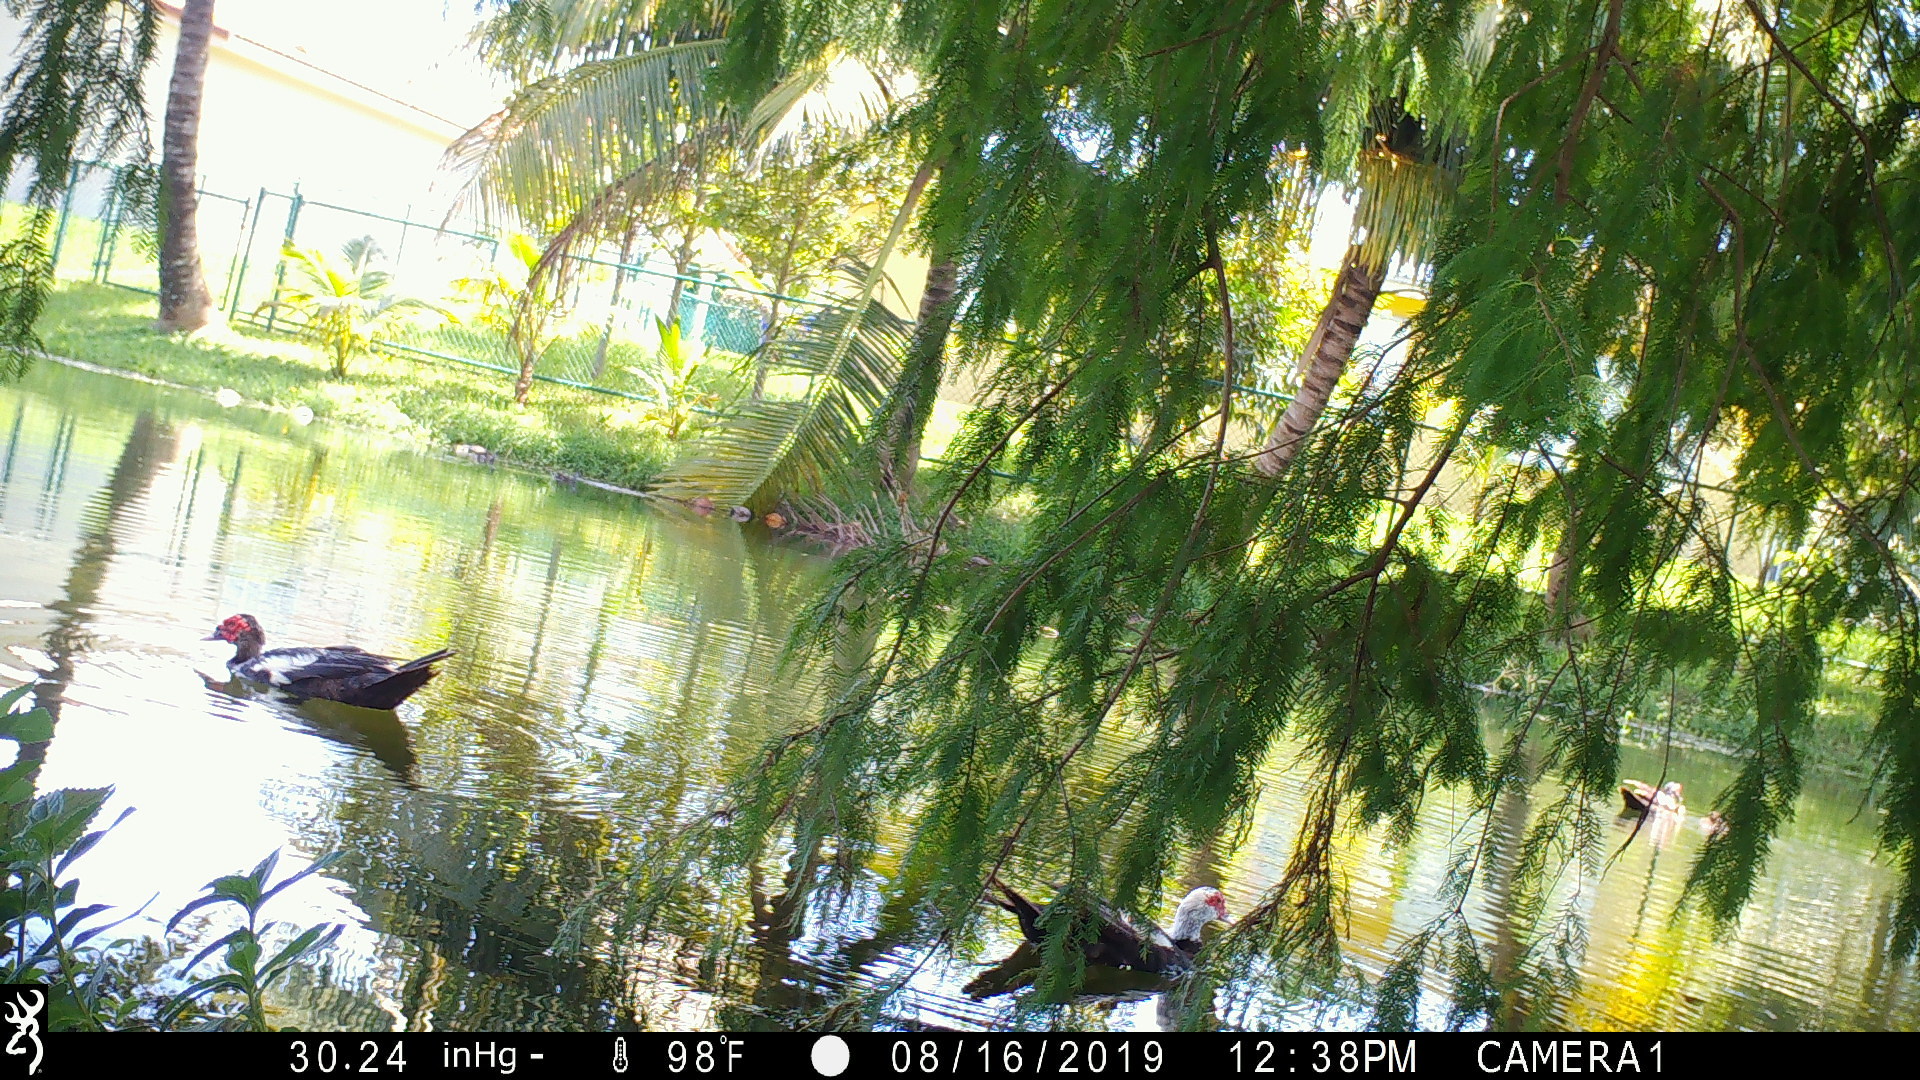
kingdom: Animalia
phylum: Chordata
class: Aves
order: Anseriformes
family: Anatidae
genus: Cairina
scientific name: Cairina moschata
